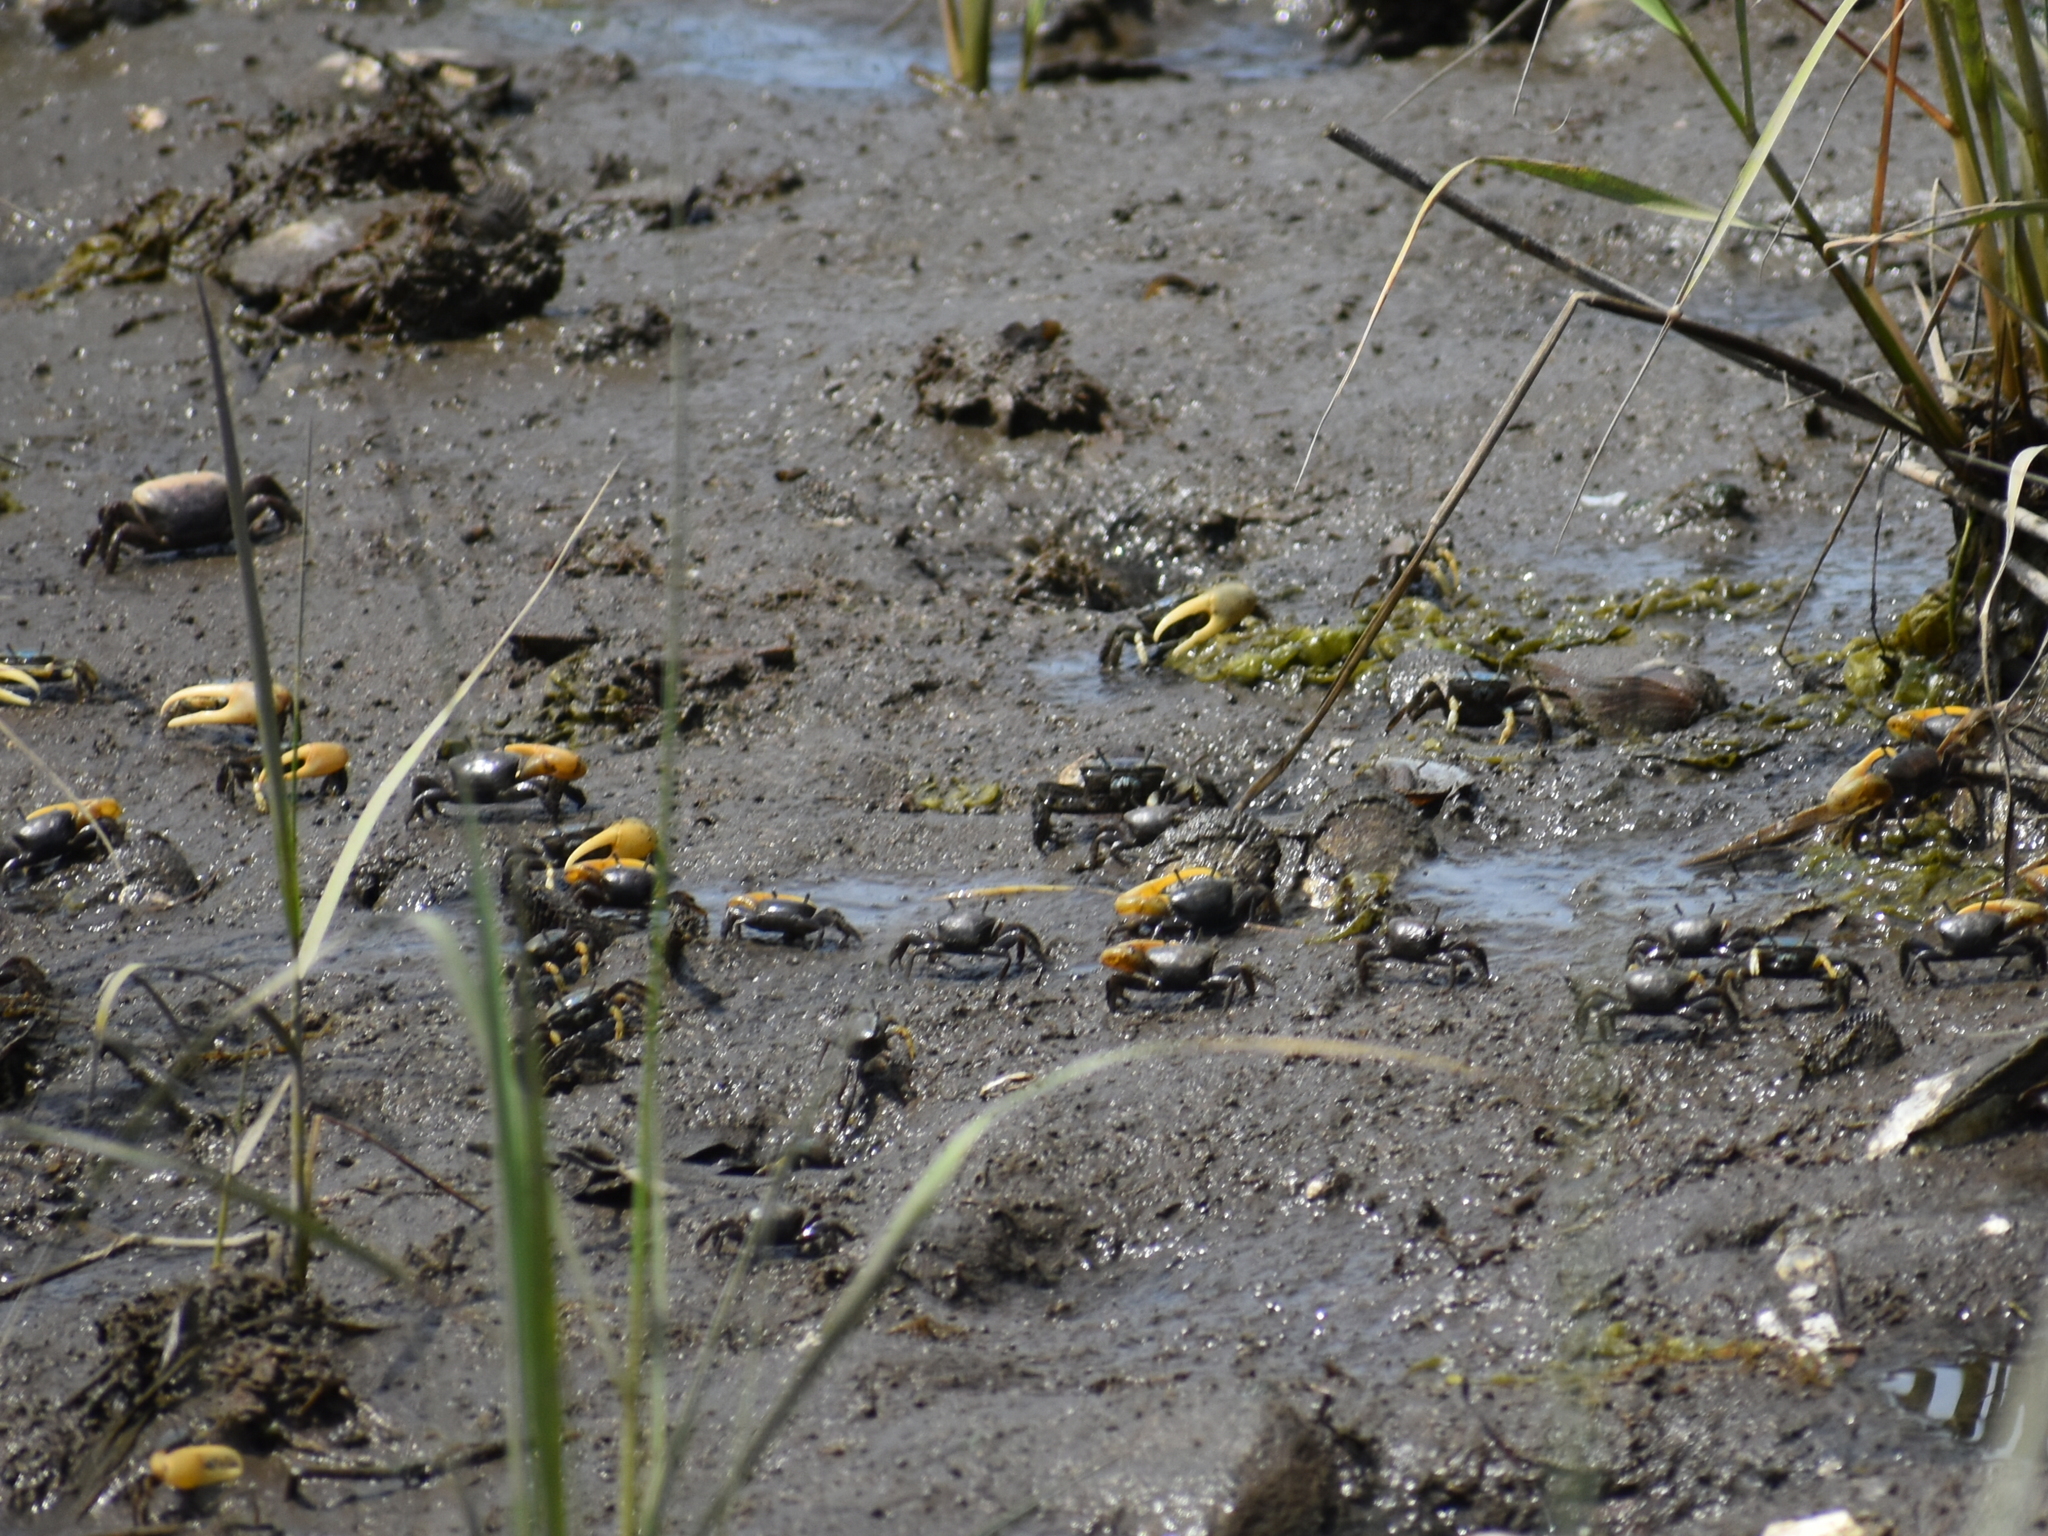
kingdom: Animalia
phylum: Arthropoda
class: Malacostraca
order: Decapoda
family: Ocypodidae
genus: Minuca
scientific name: Minuca pugnax
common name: Mud fiddler crab
